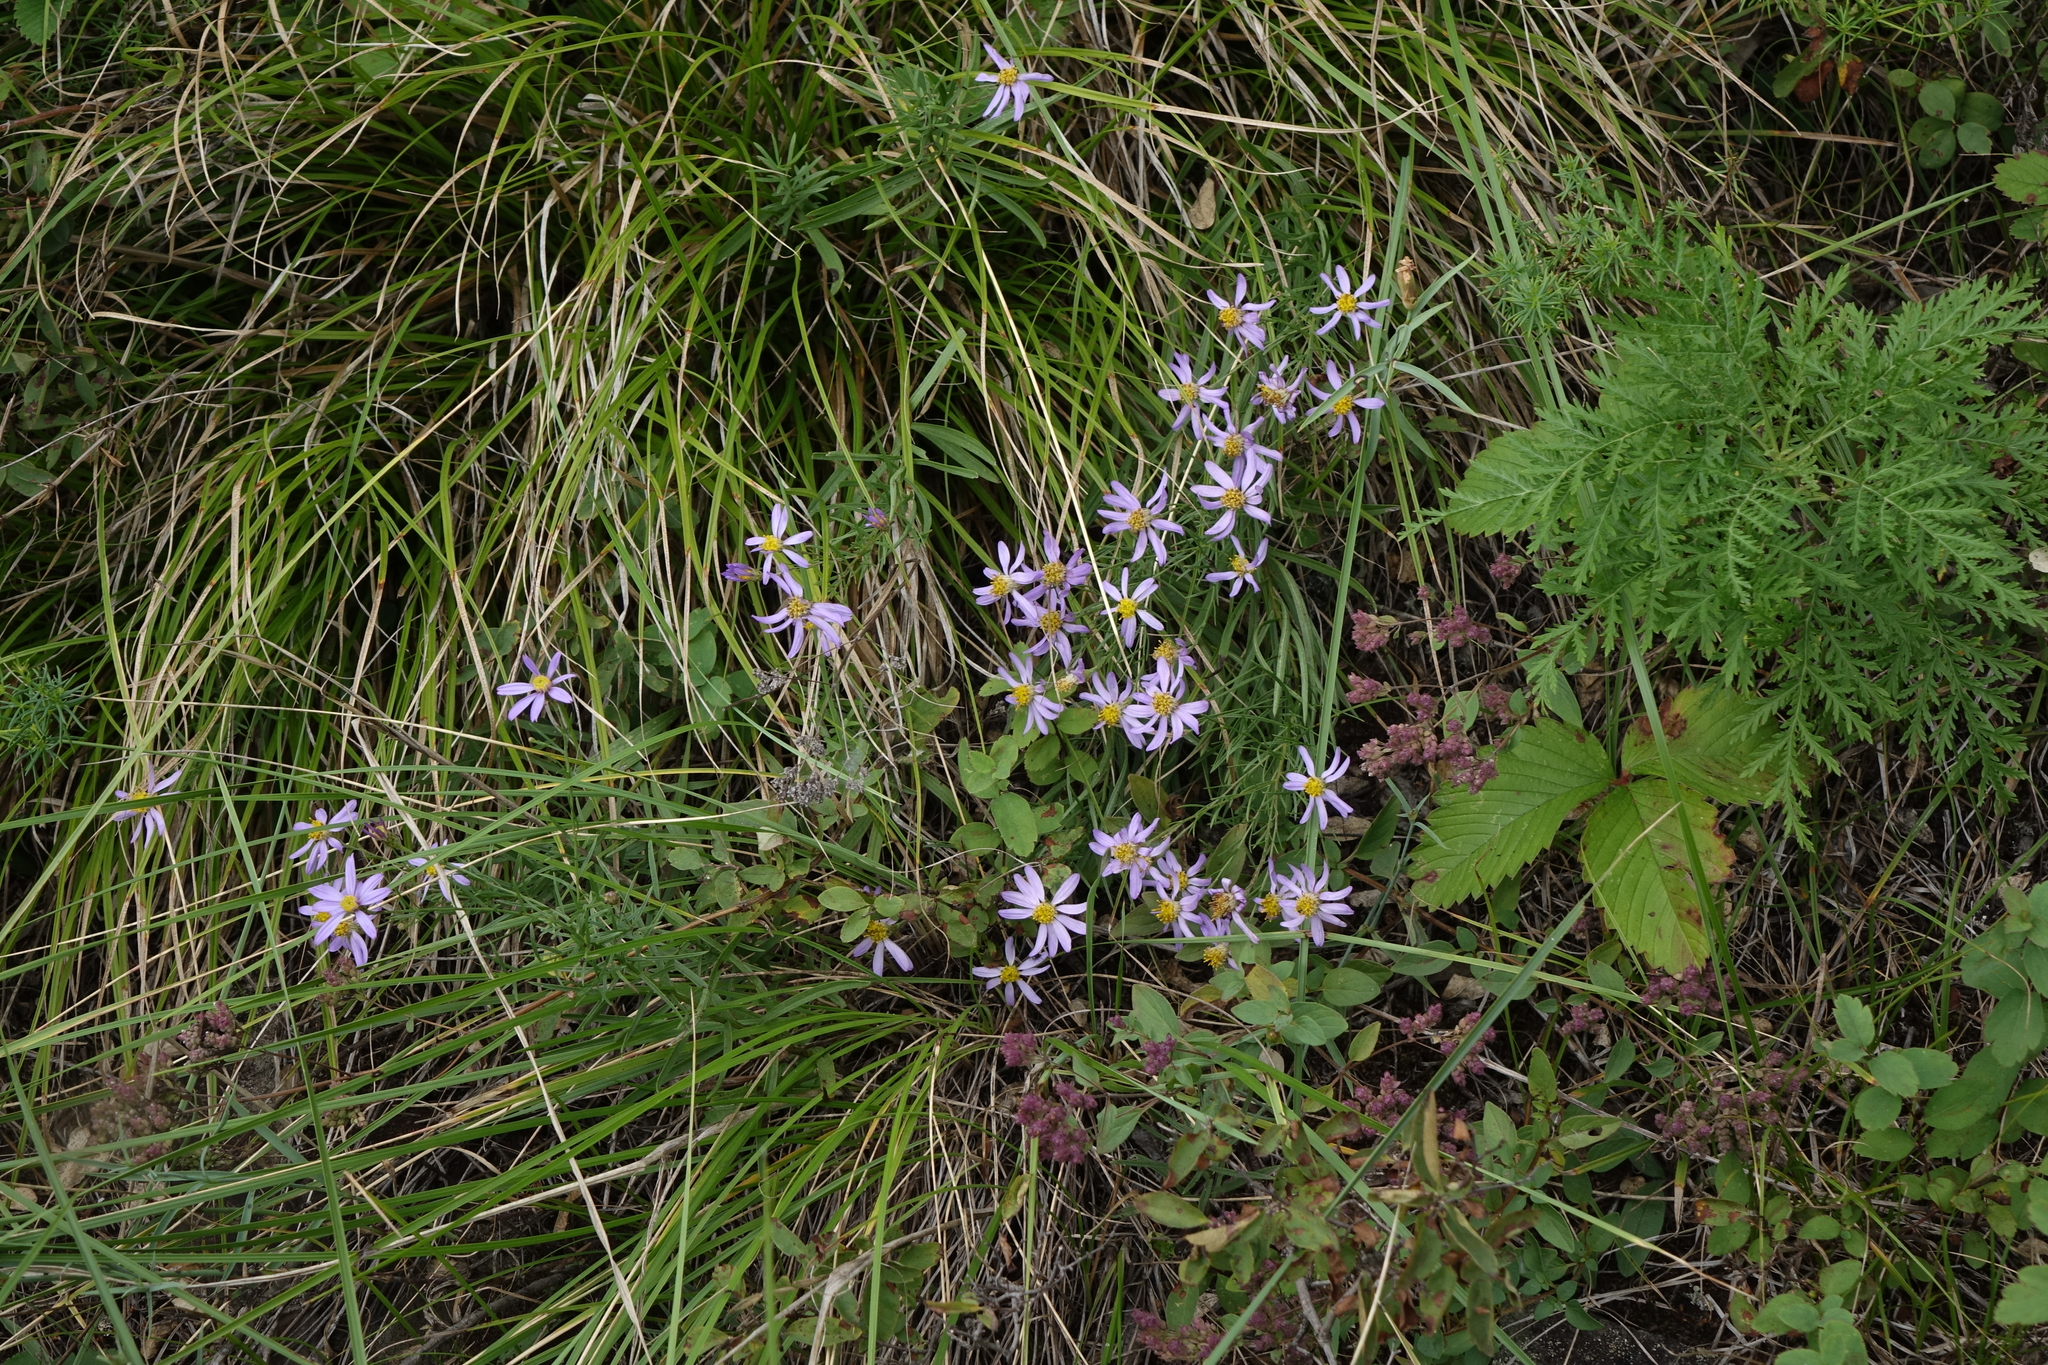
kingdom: Plantae
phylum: Tracheophyta
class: Magnoliopsida
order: Asterales
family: Asteraceae
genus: Galatella
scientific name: Galatella angustissima
